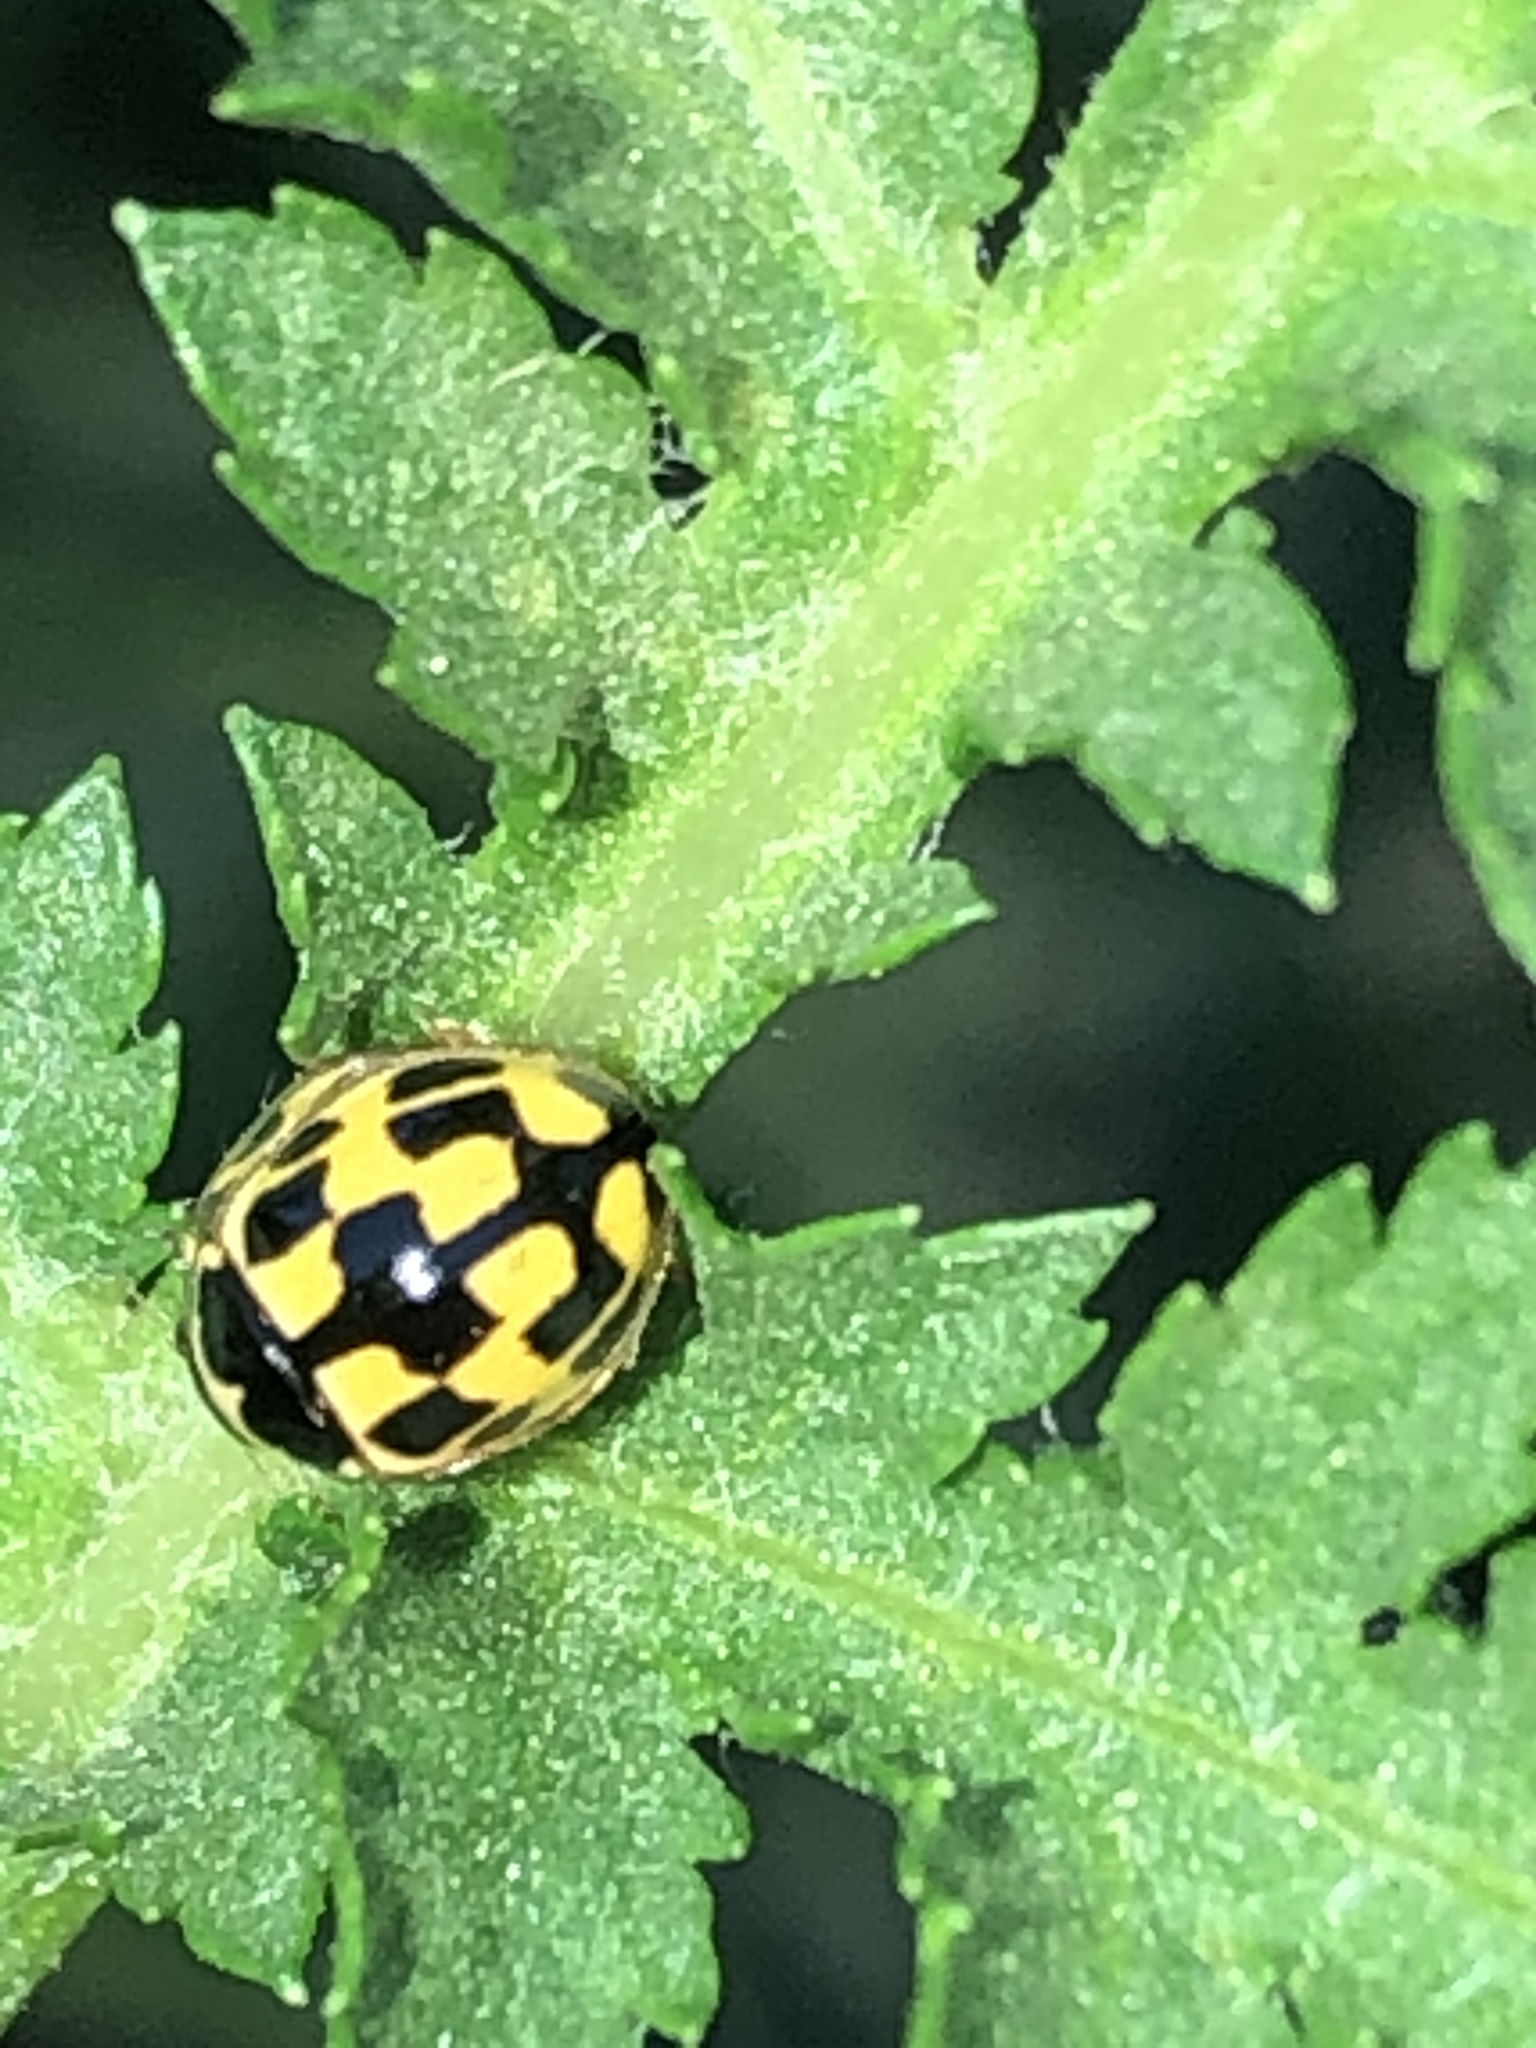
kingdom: Animalia
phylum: Arthropoda
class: Insecta
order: Coleoptera
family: Coccinellidae
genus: Propylaea
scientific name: Propylaea quatuordecimpunctata
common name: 14-spotted ladybird beetle
